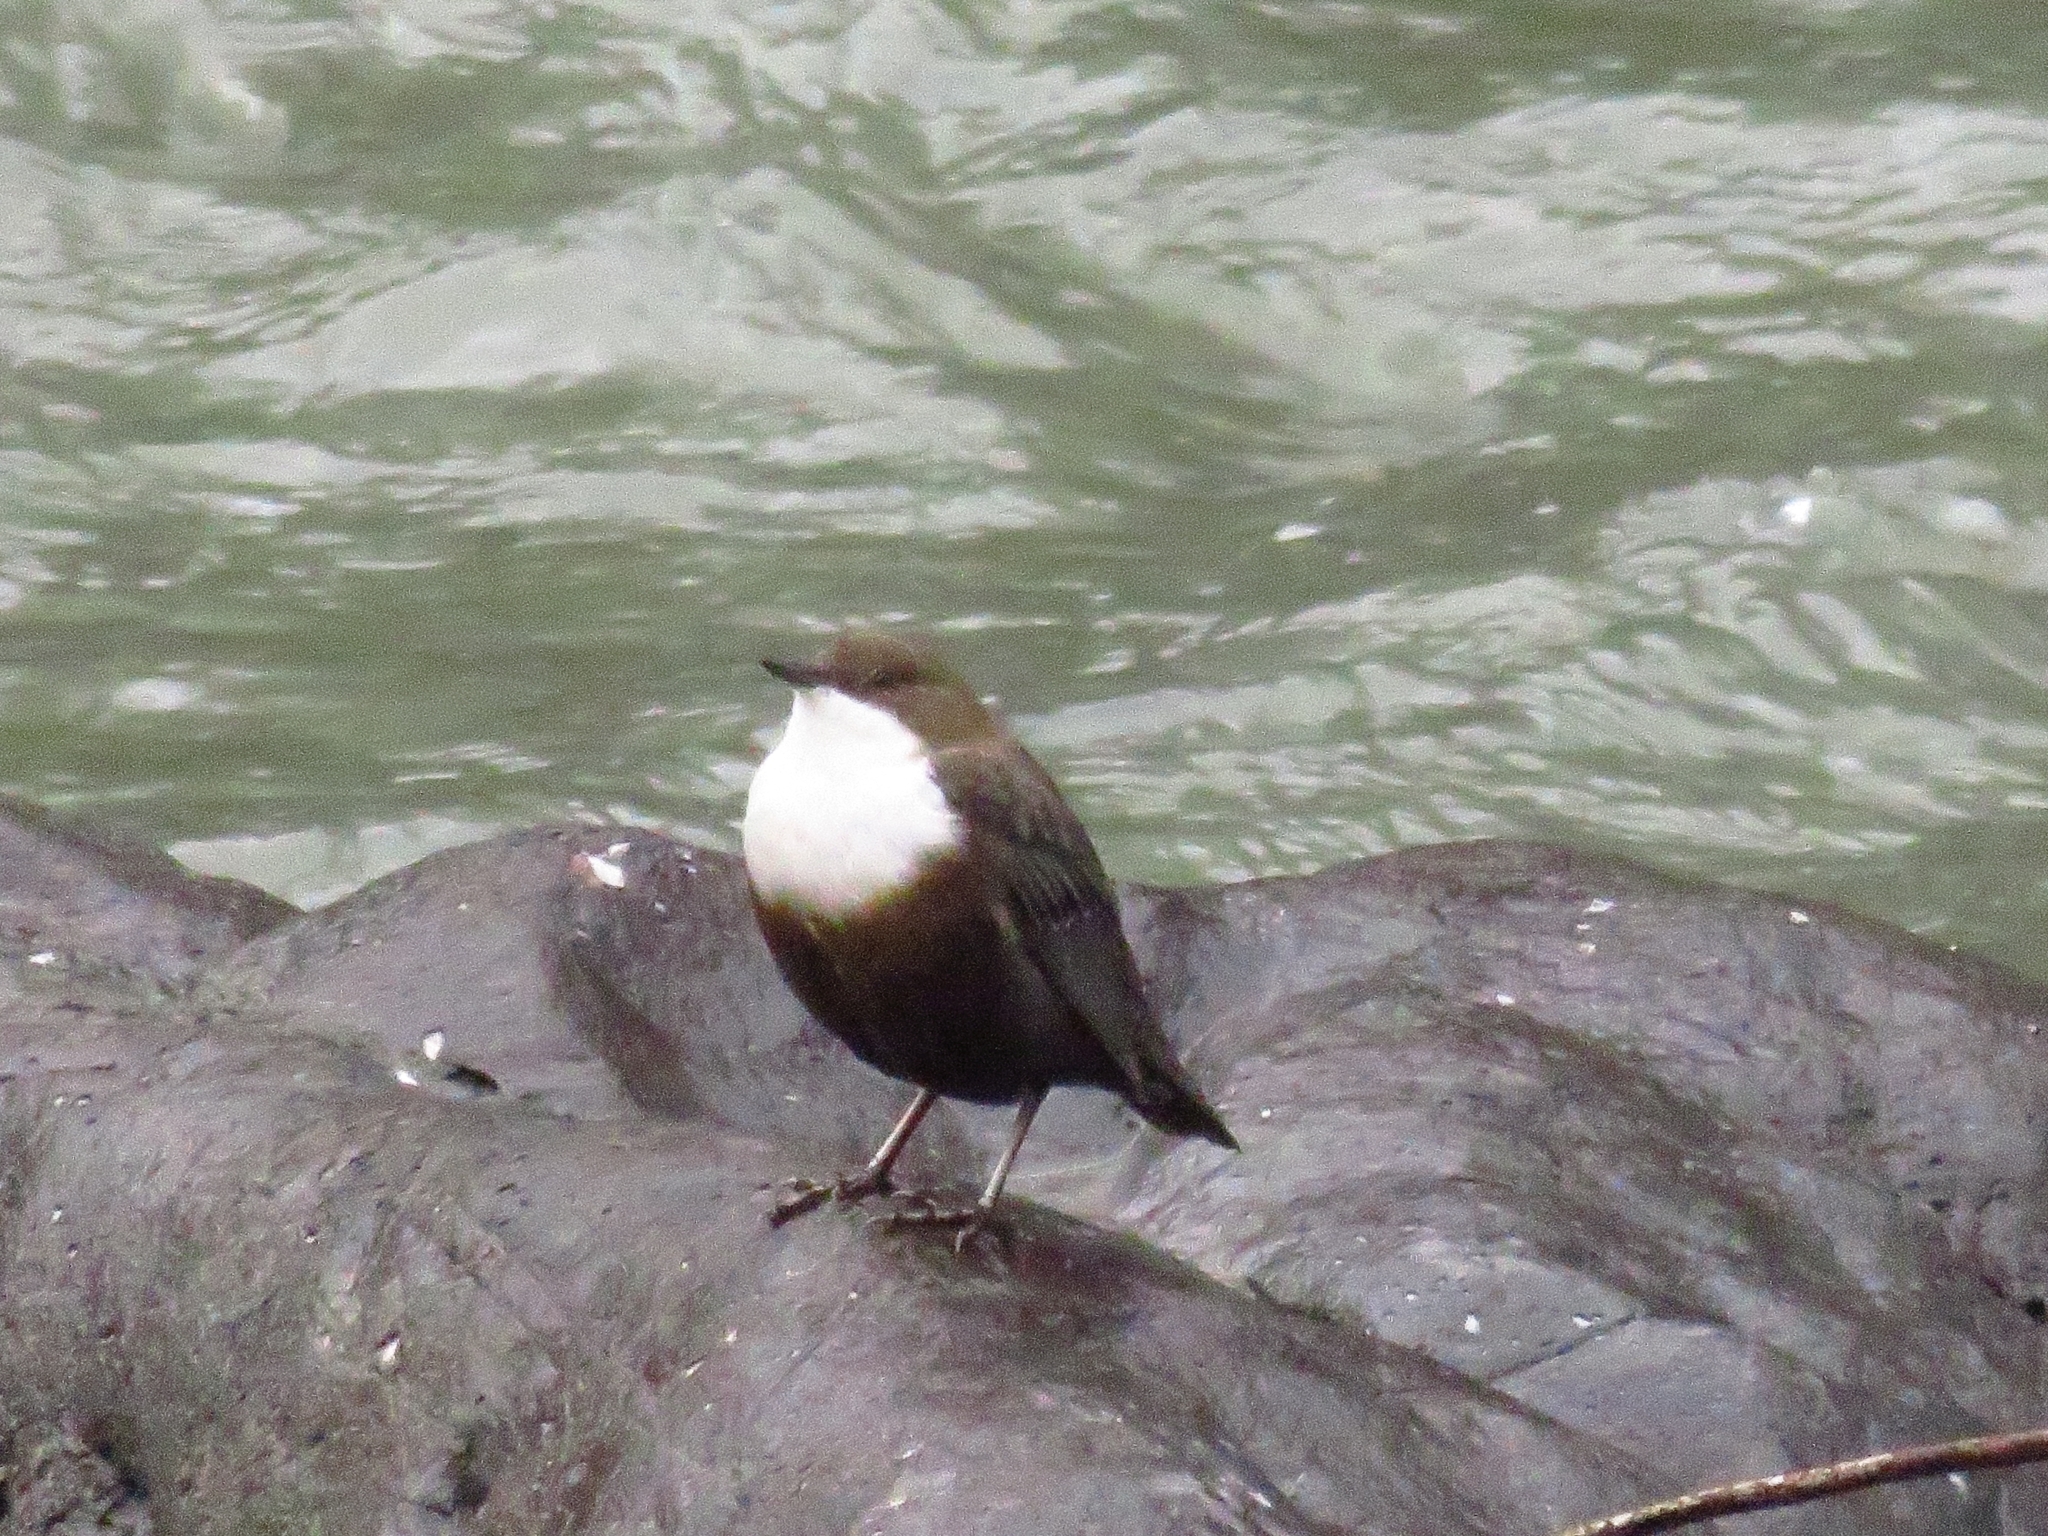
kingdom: Animalia
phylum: Chordata
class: Aves
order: Passeriformes
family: Cinclidae
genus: Cinclus
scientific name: Cinclus cinclus
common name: White-throated dipper
